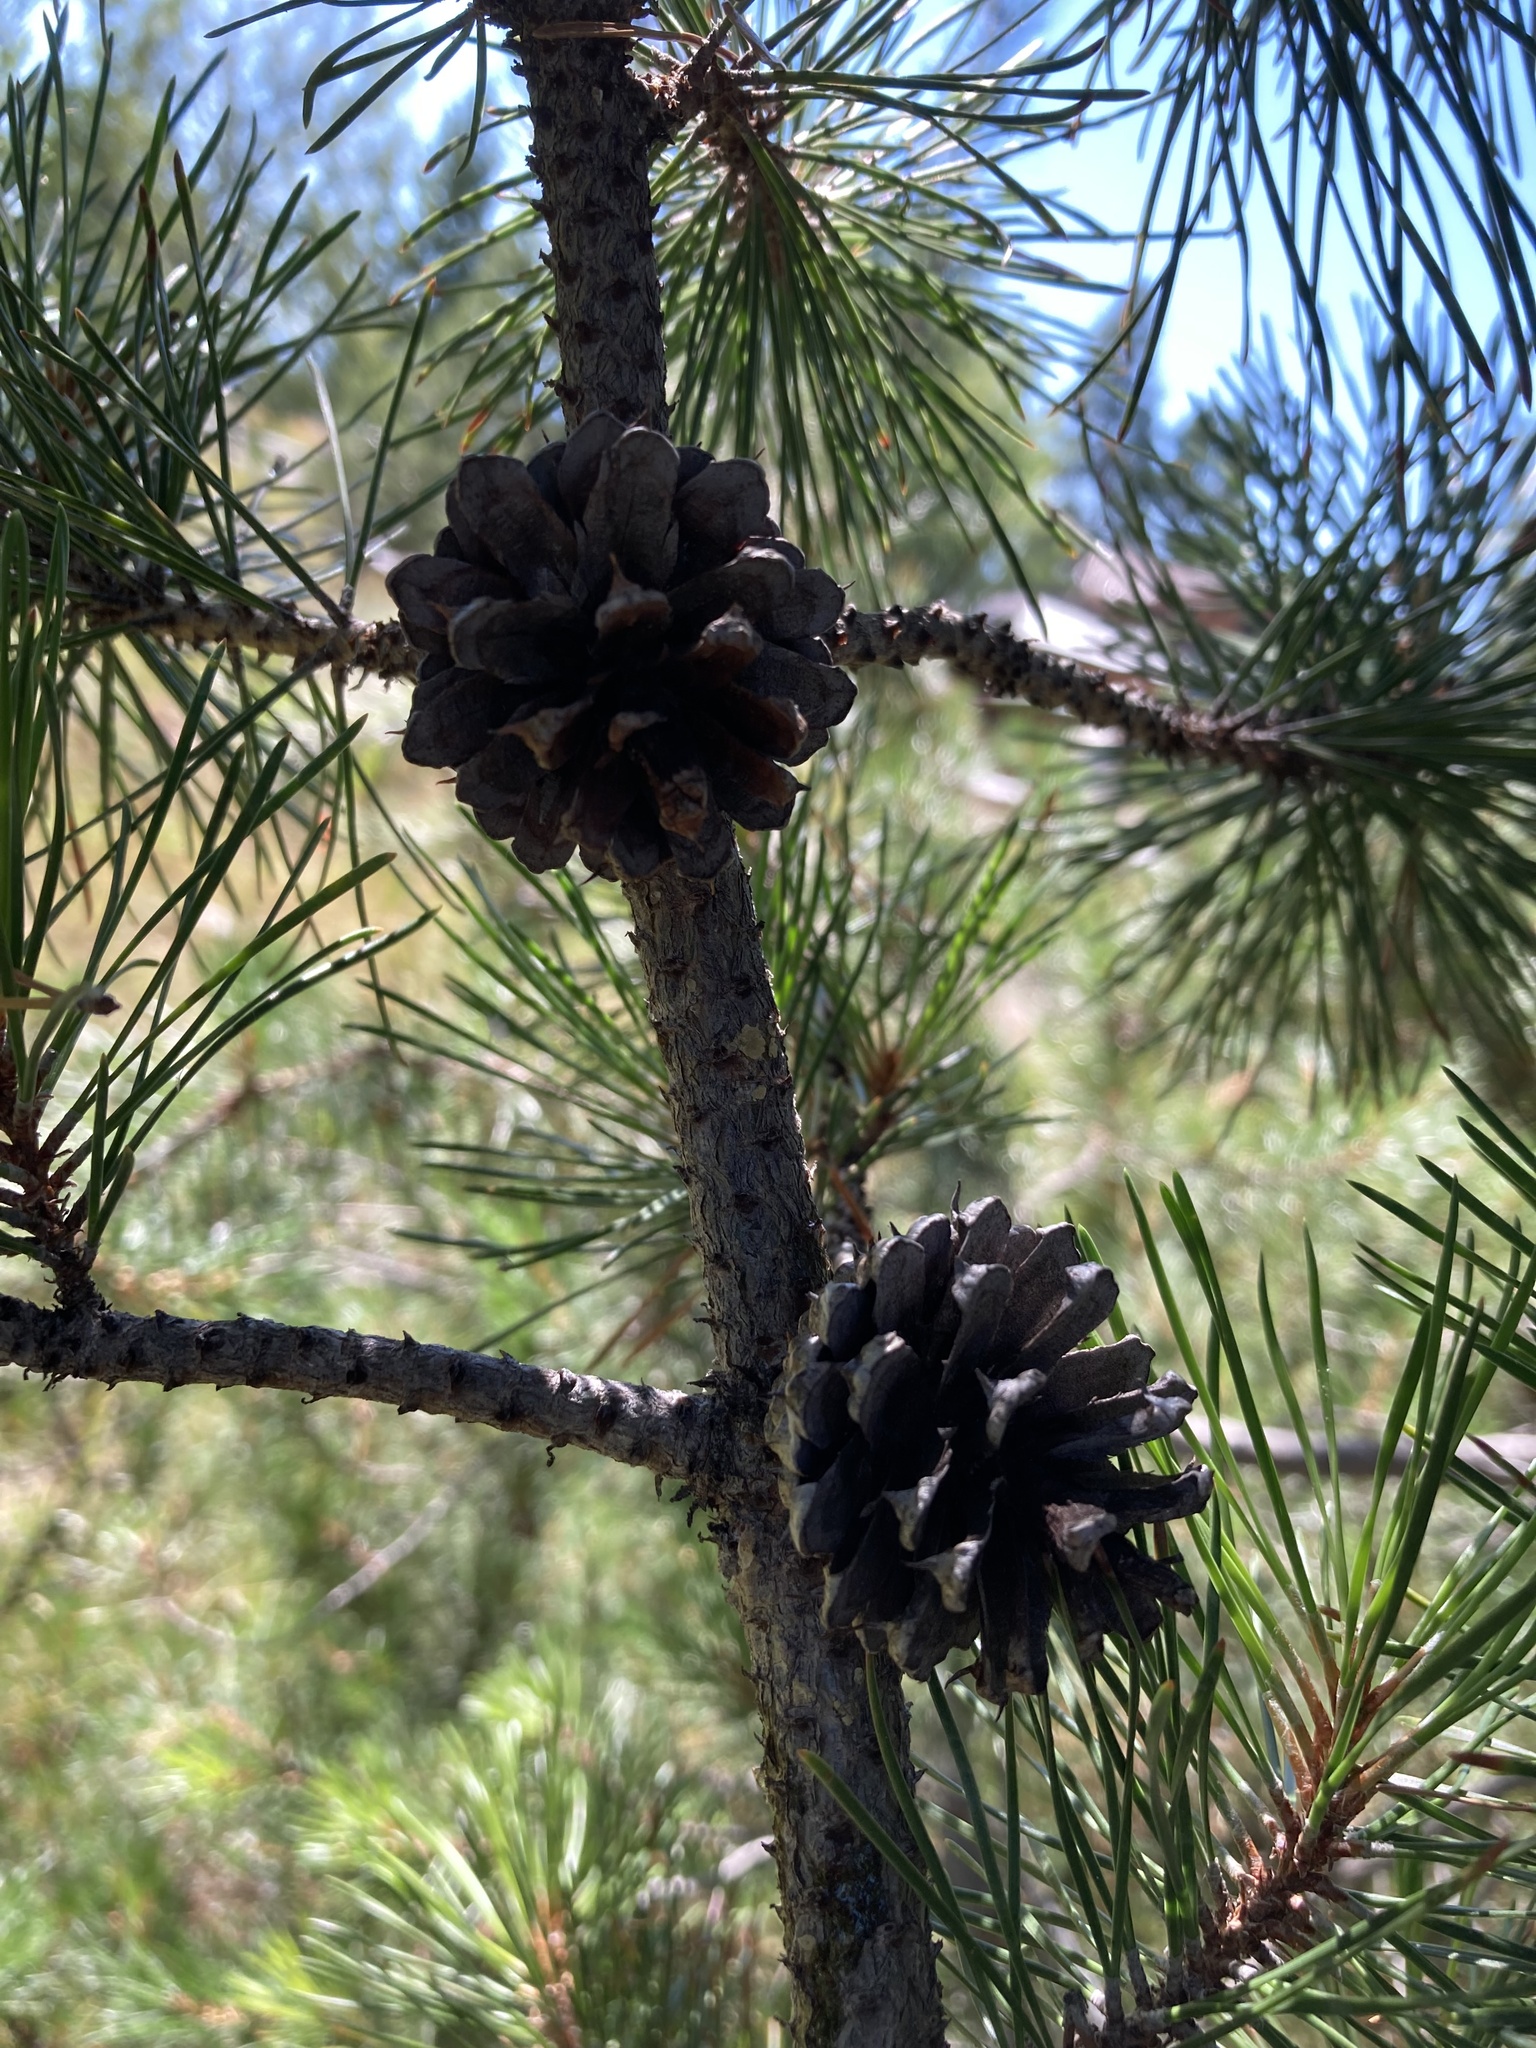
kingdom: Plantae
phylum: Tracheophyta
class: Pinopsida
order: Pinales
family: Pinaceae
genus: Pinus
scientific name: Pinus contorta
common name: Lodgepole pine
